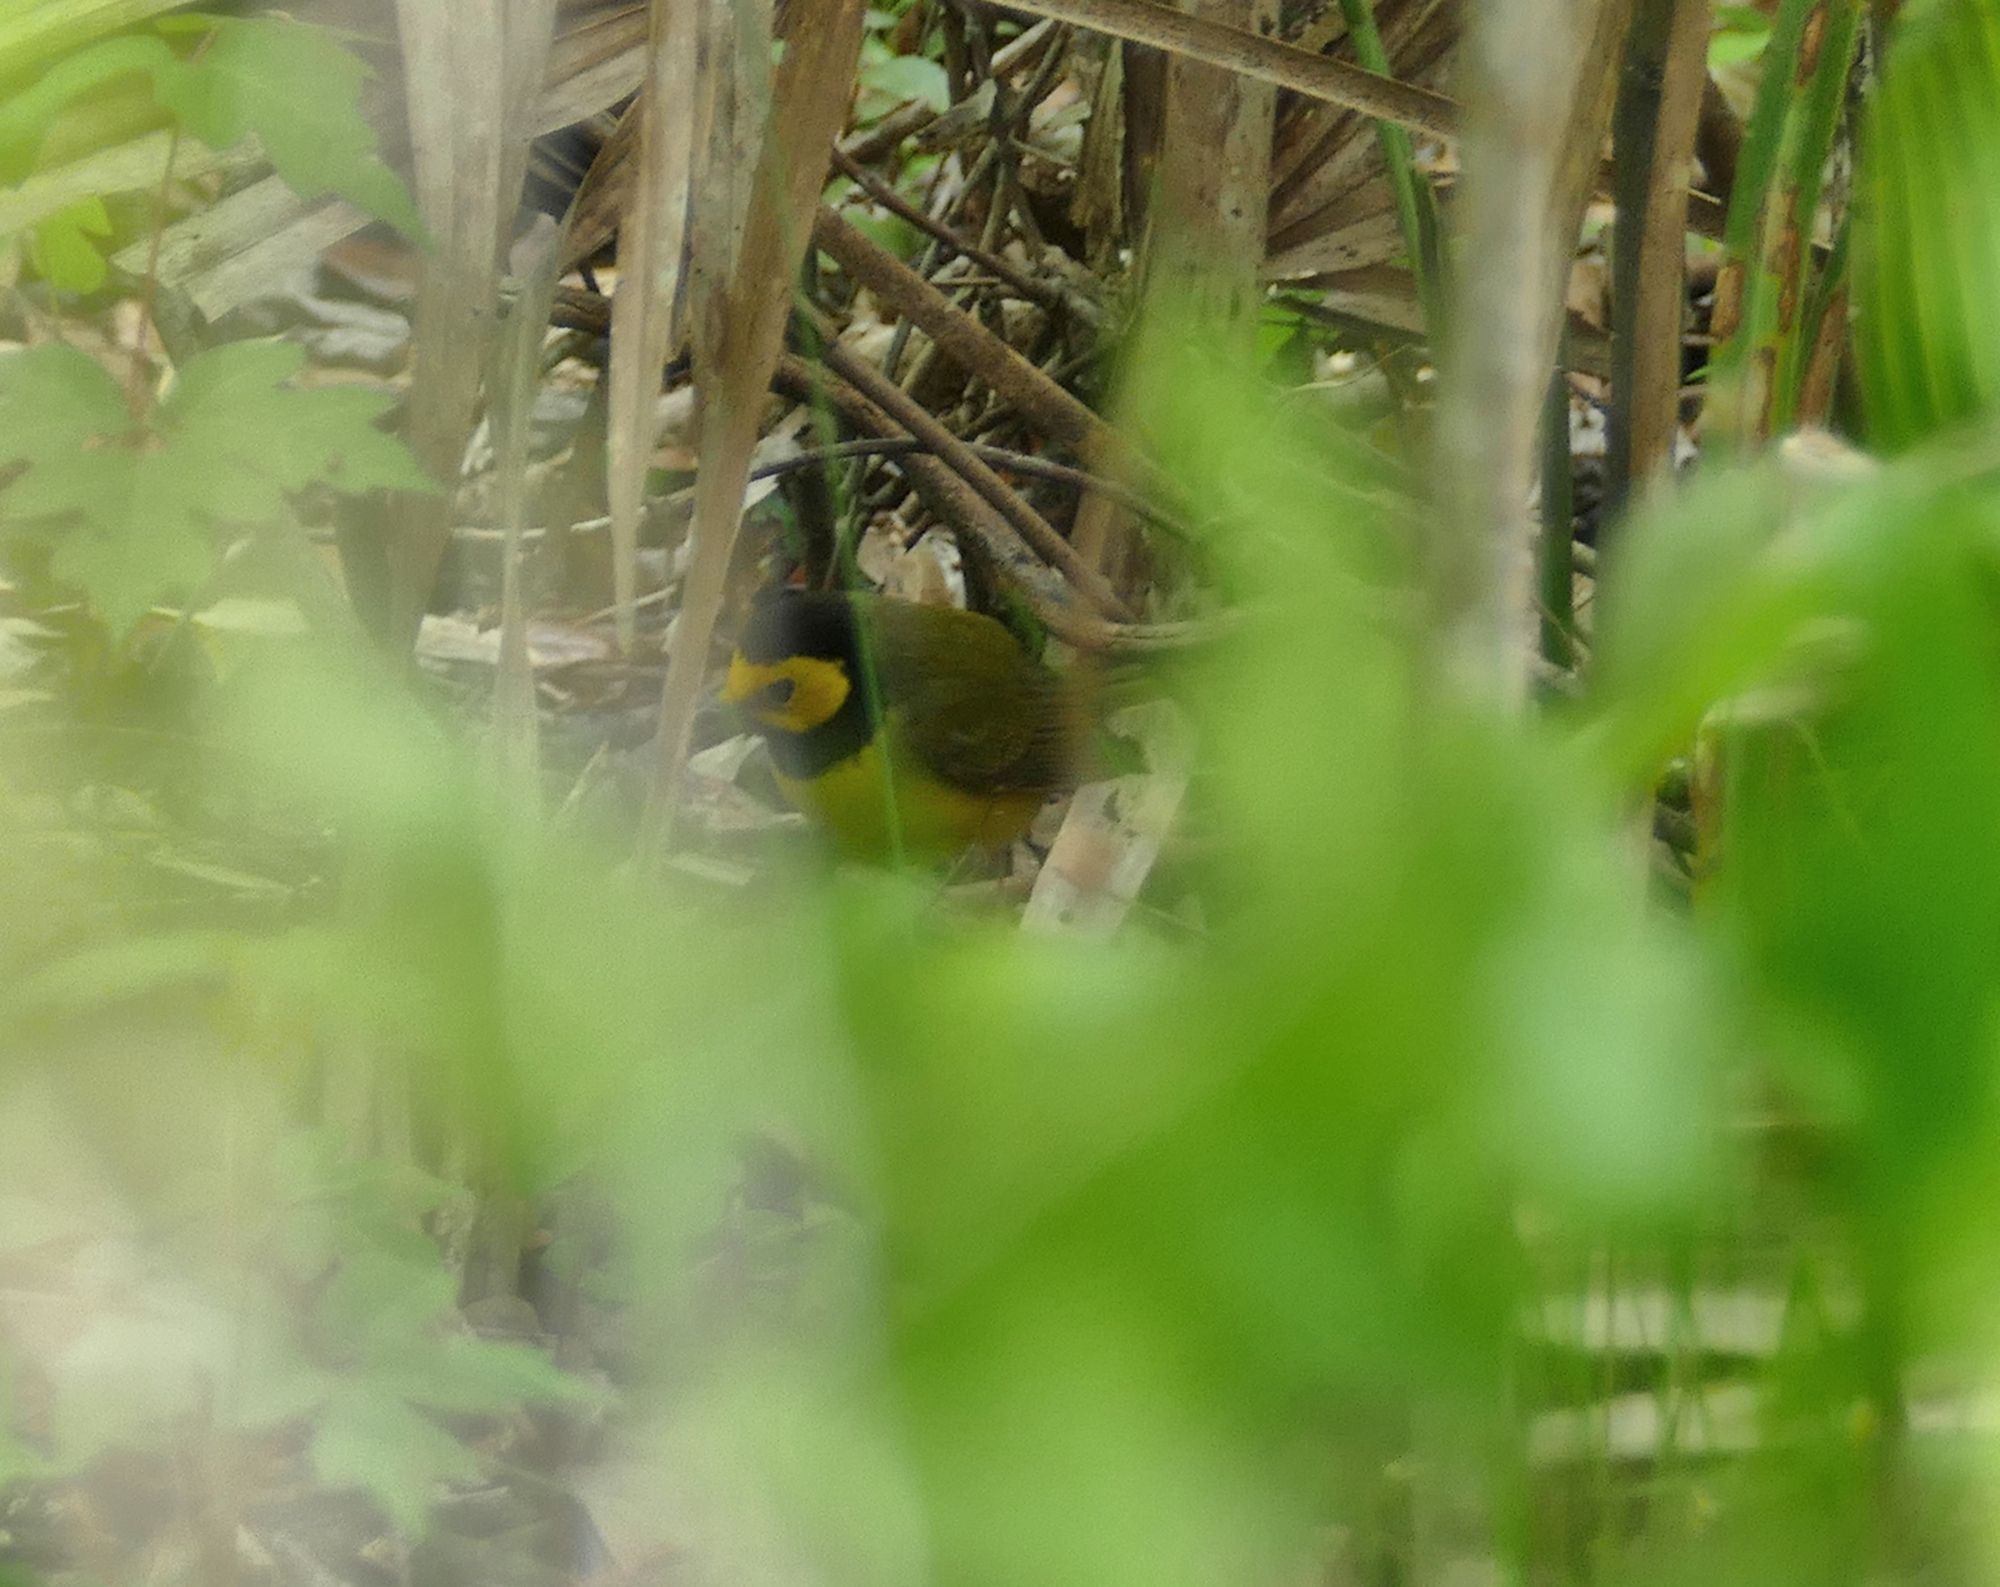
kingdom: Animalia
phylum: Chordata
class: Aves
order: Passeriformes
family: Parulidae
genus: Setophaga
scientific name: Setophaga citrina
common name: Hooded warbler
